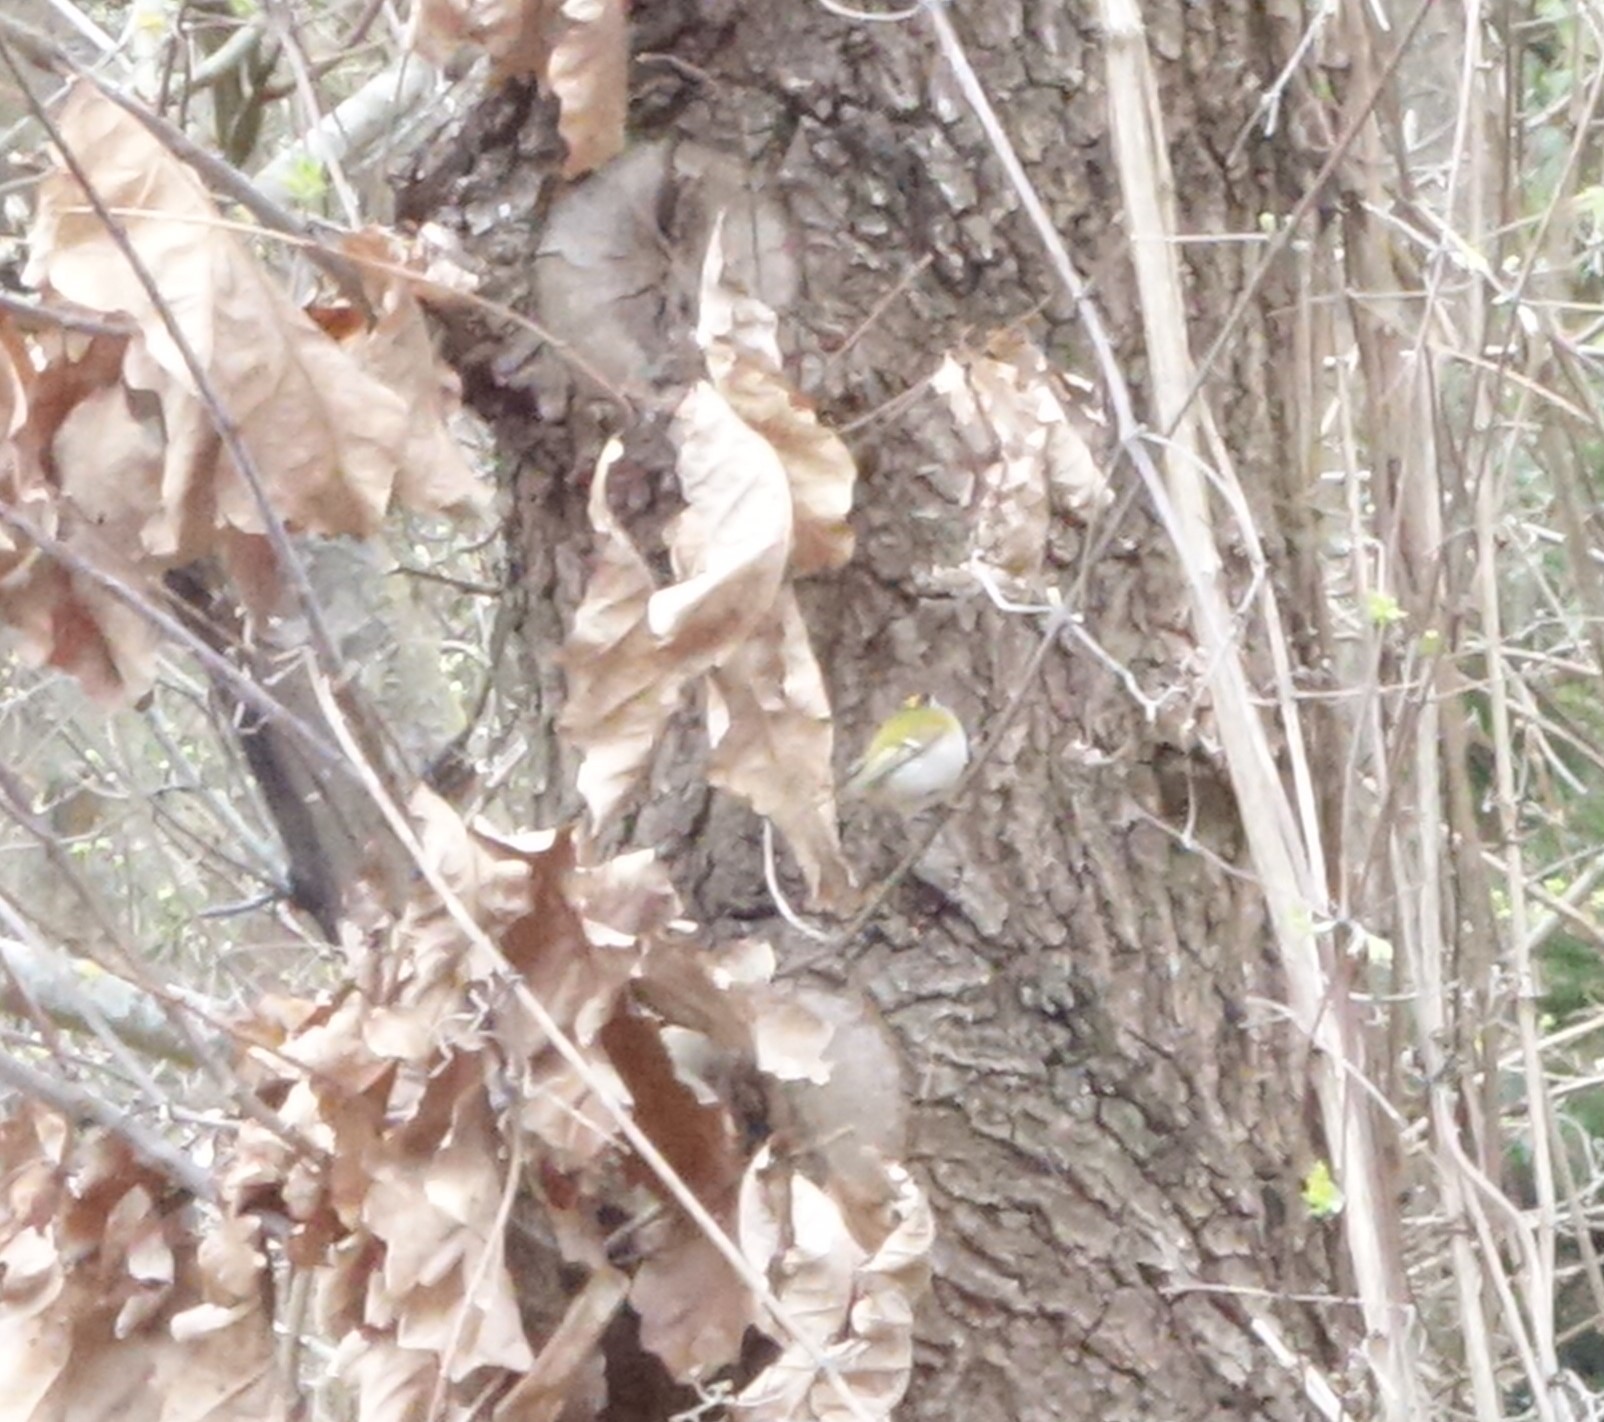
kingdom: Animalia
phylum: Chordata
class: Aves
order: Passeriformes
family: Regulidae
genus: Regulus
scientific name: Regulus ignicapilla
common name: Firecrest
